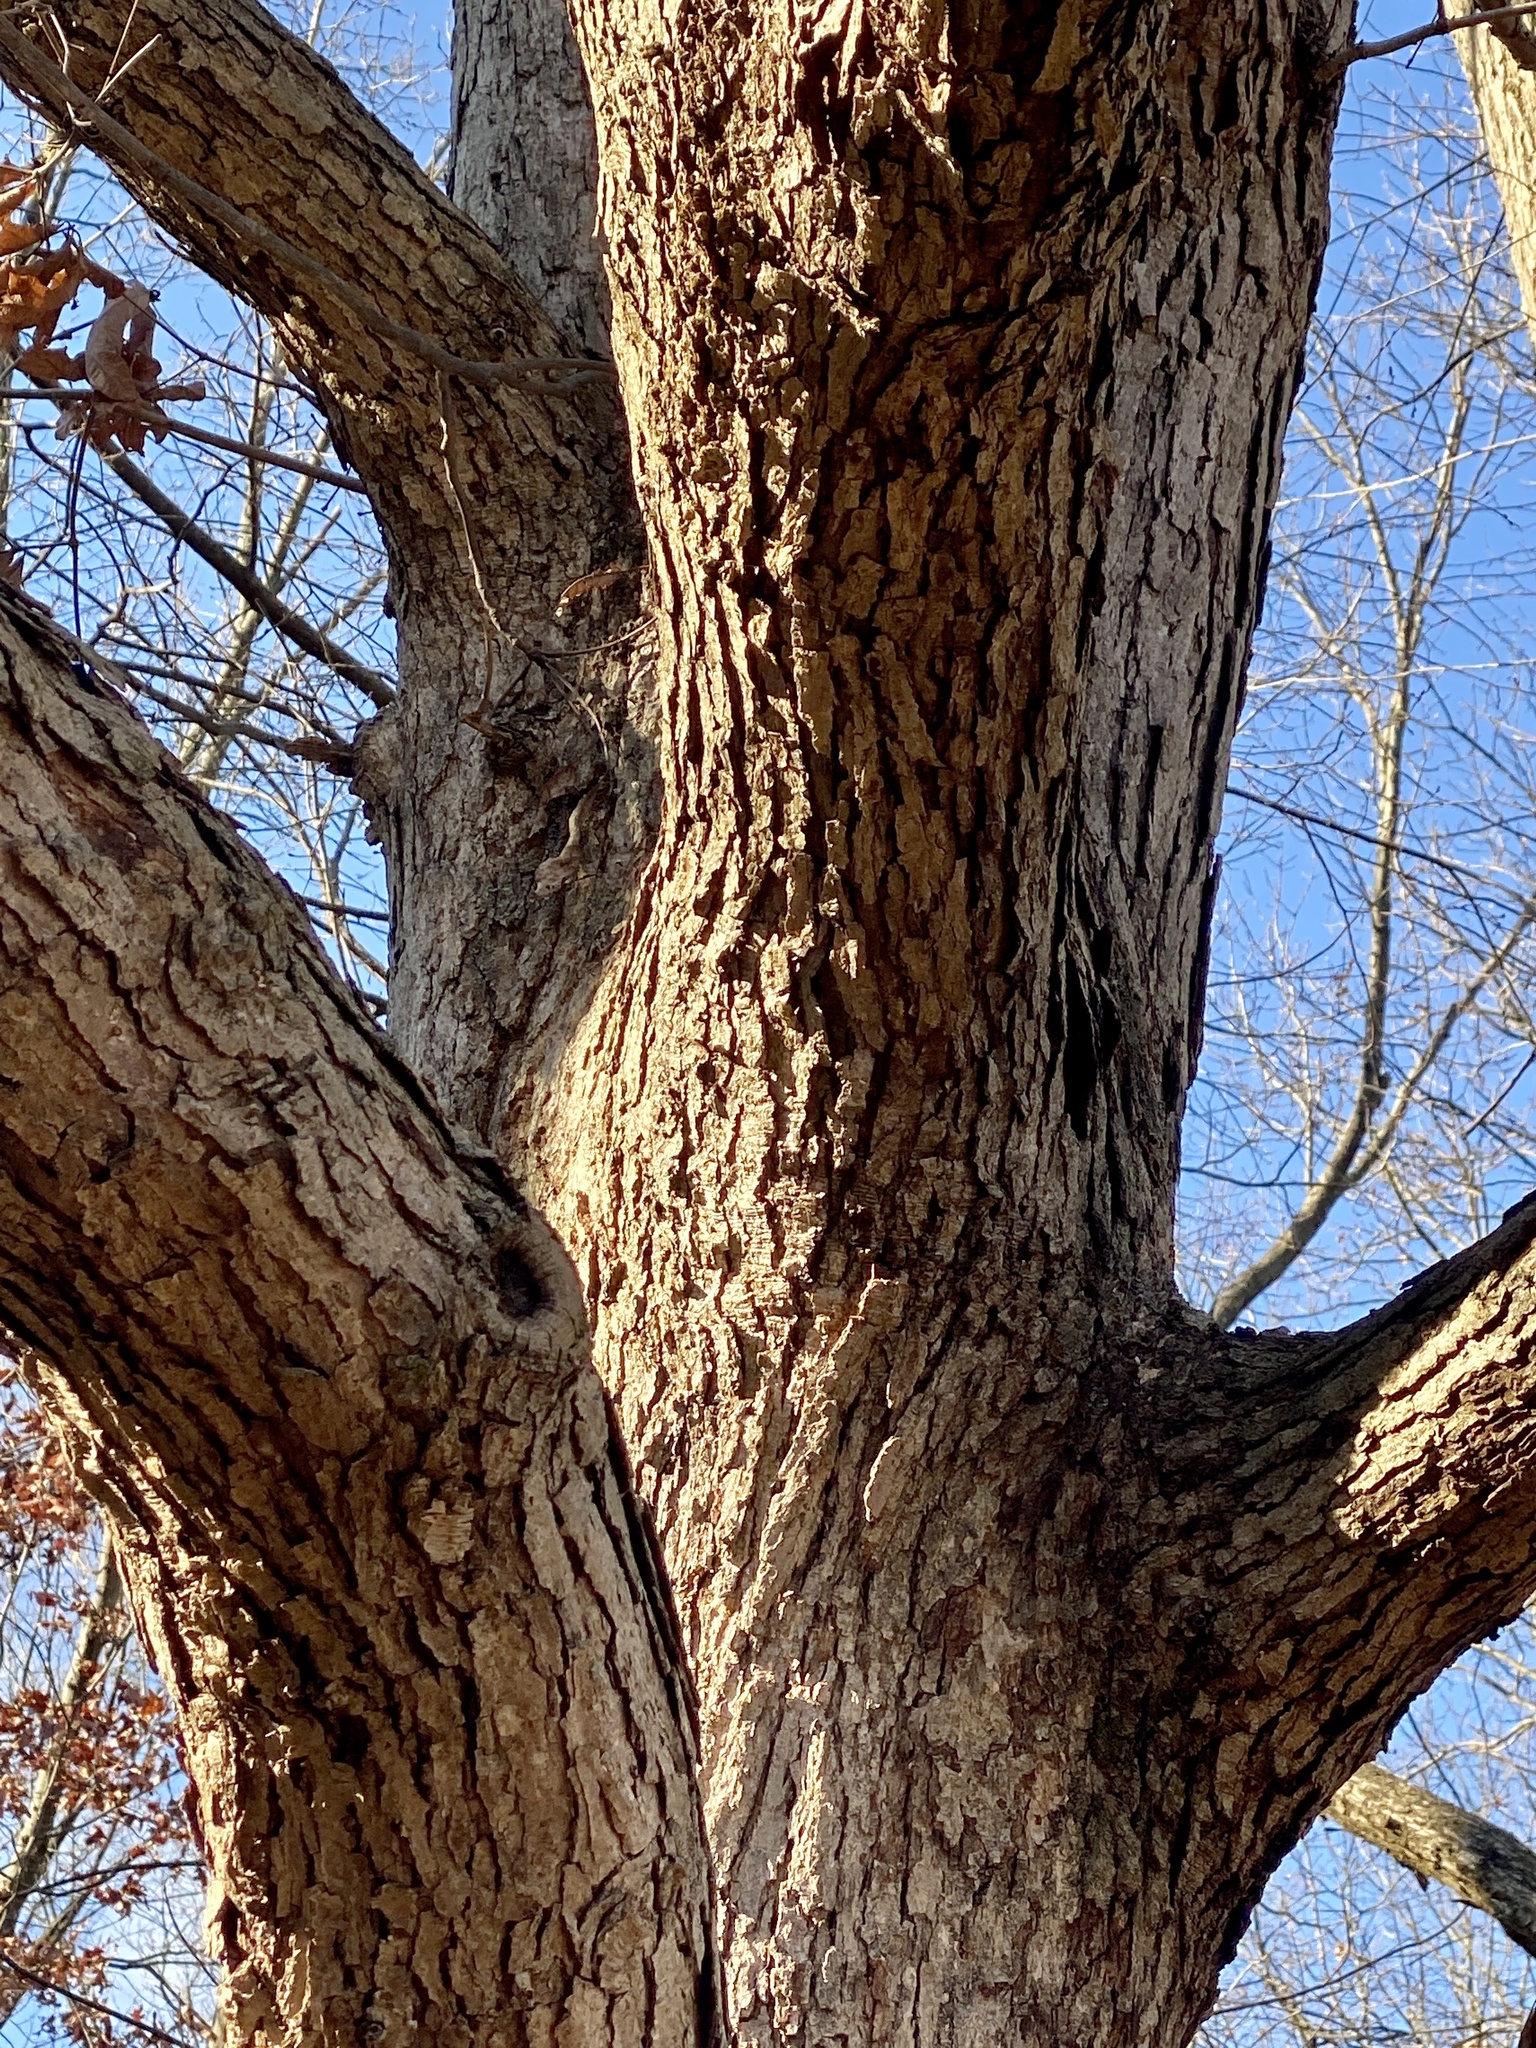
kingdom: Plantae
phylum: Tracheophyta
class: Magnoliopsida
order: Fagales
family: Fagaceae
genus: Quercus
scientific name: Quercus alba
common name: White oak
